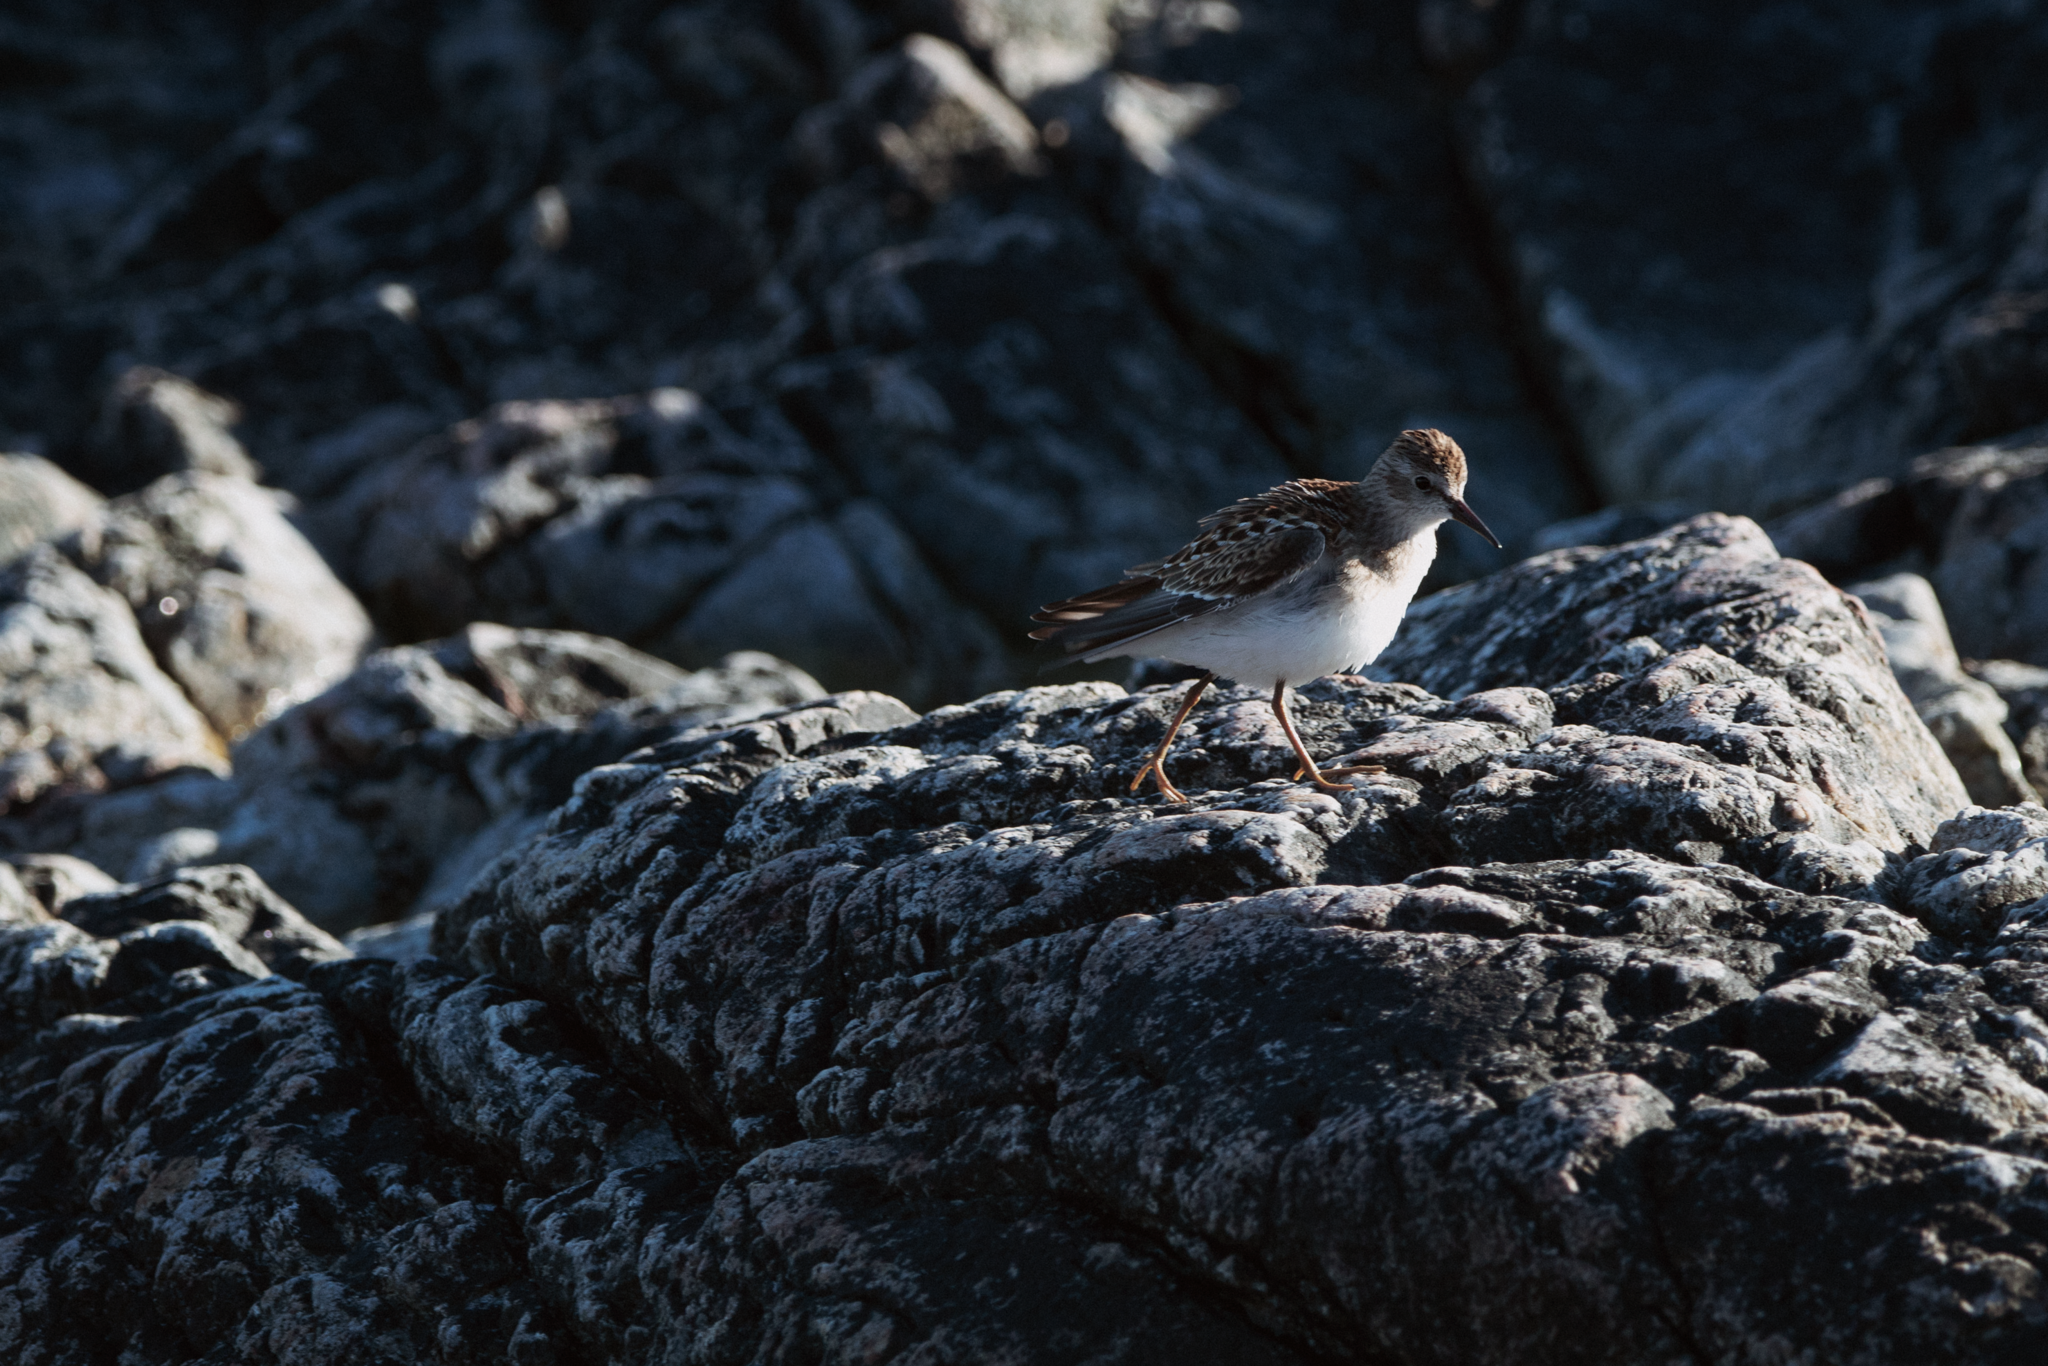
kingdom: Animalia
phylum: Chordata
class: Aves
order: Charadriiformes
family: Scolopacidae
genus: Calidris
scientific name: Calidris minutilla
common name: Least sandpiper
